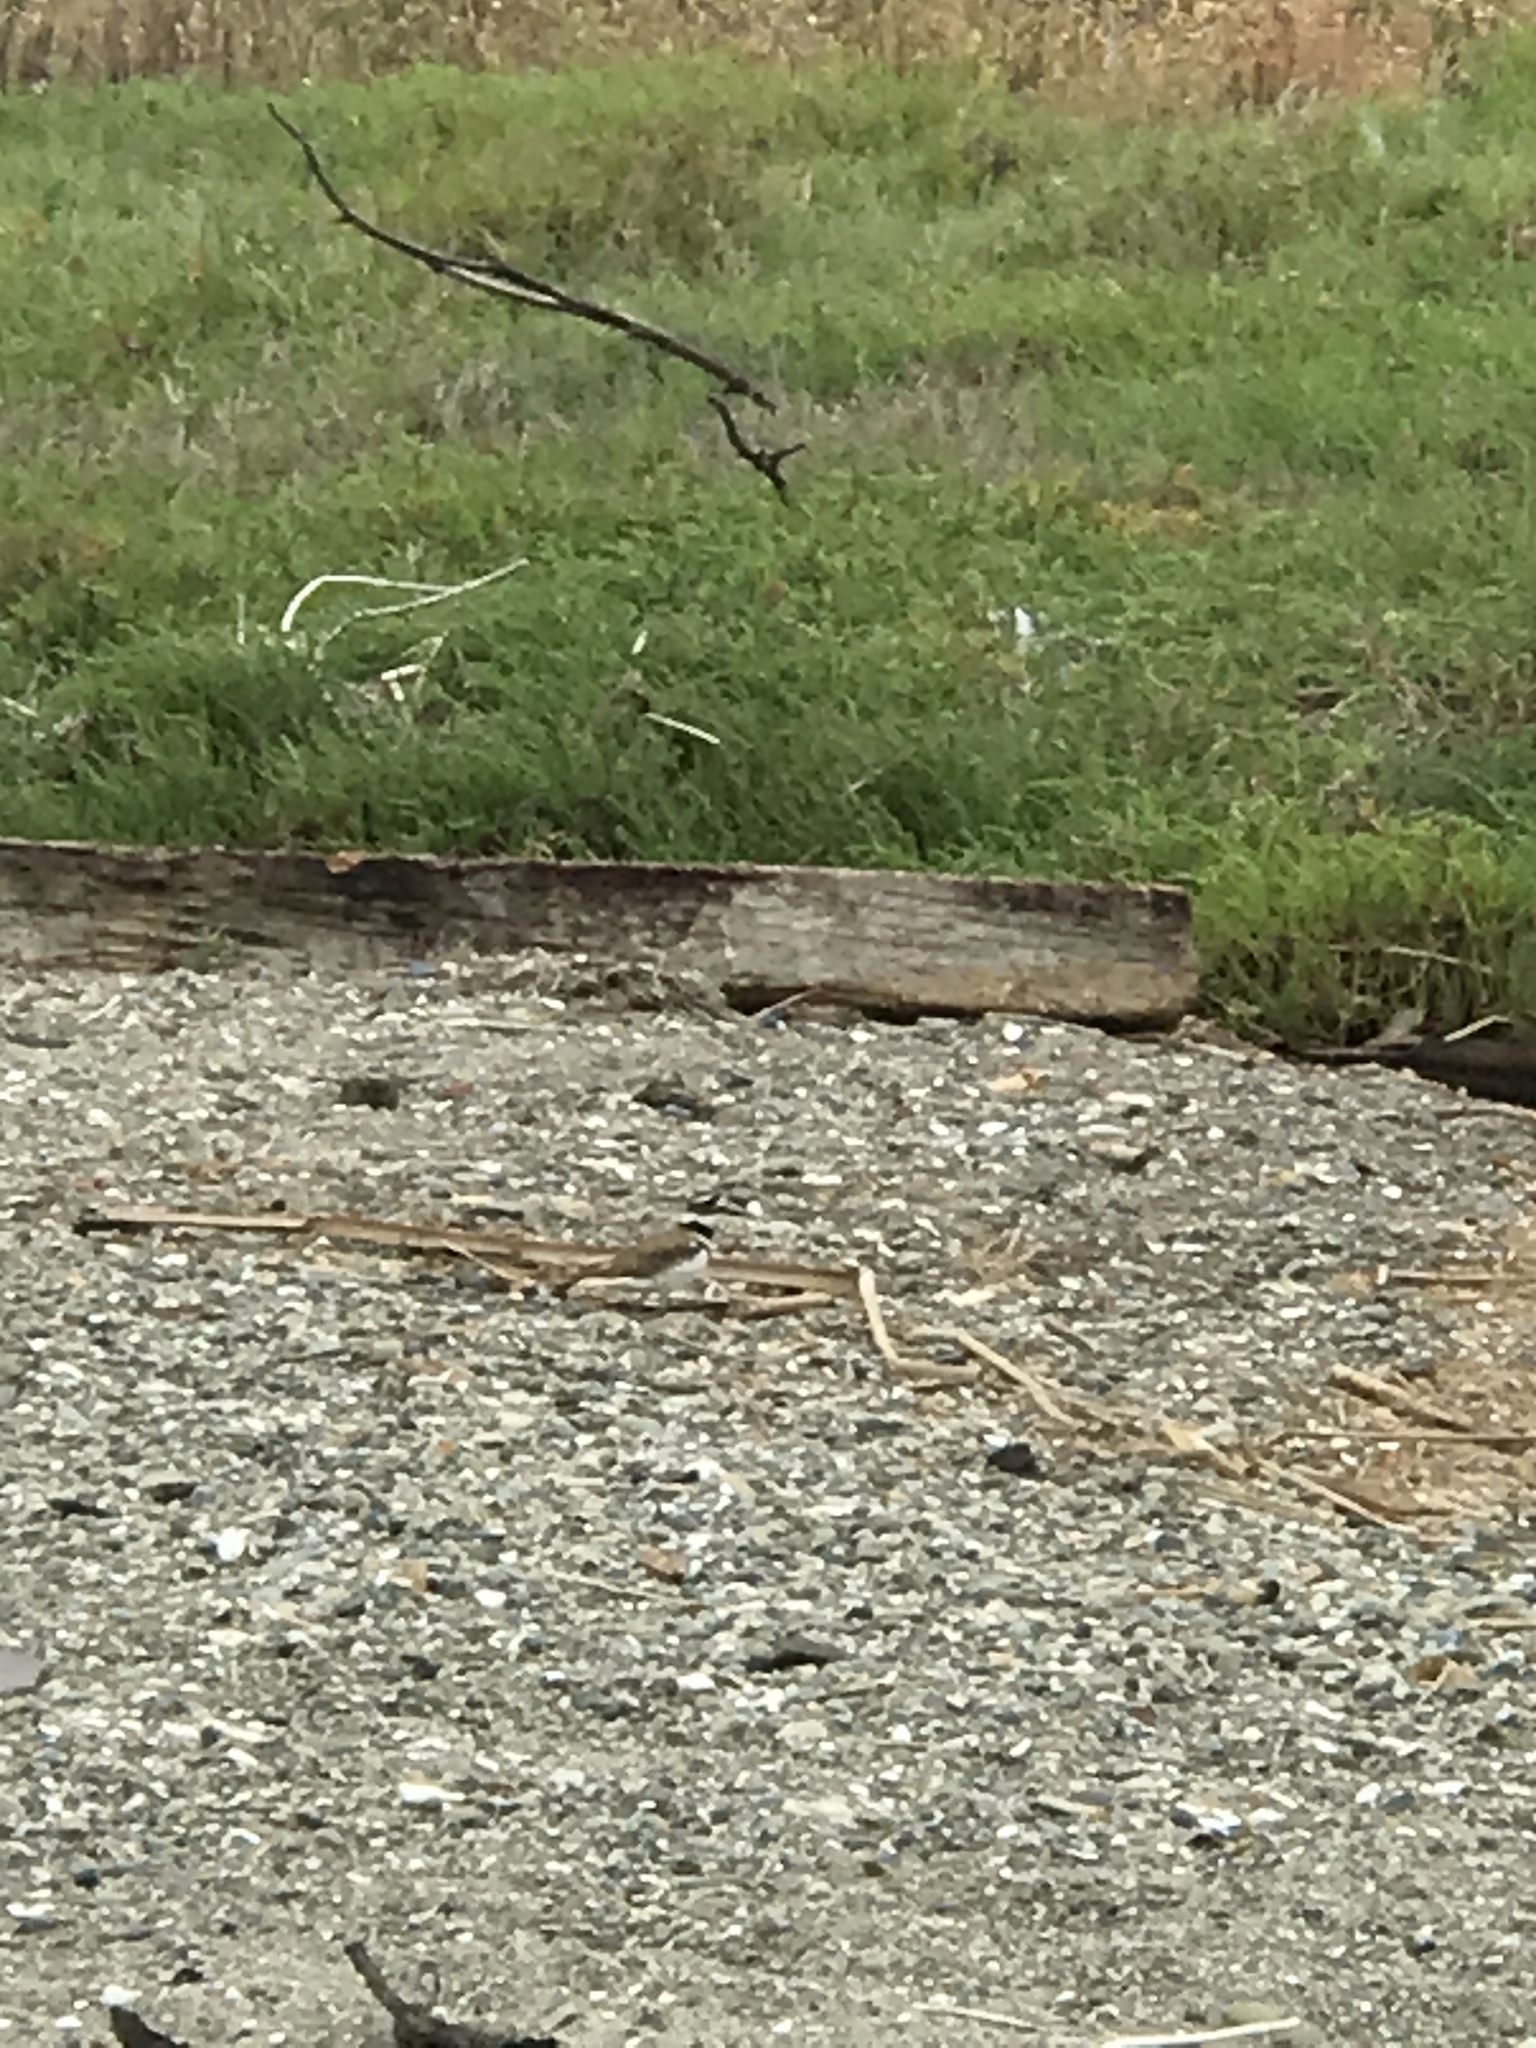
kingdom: Animalia
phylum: Chordata
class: Aves
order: Charadriiformes
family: Charadriidae
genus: Charadrius
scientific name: Charadrius vociferus
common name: Killdeer
